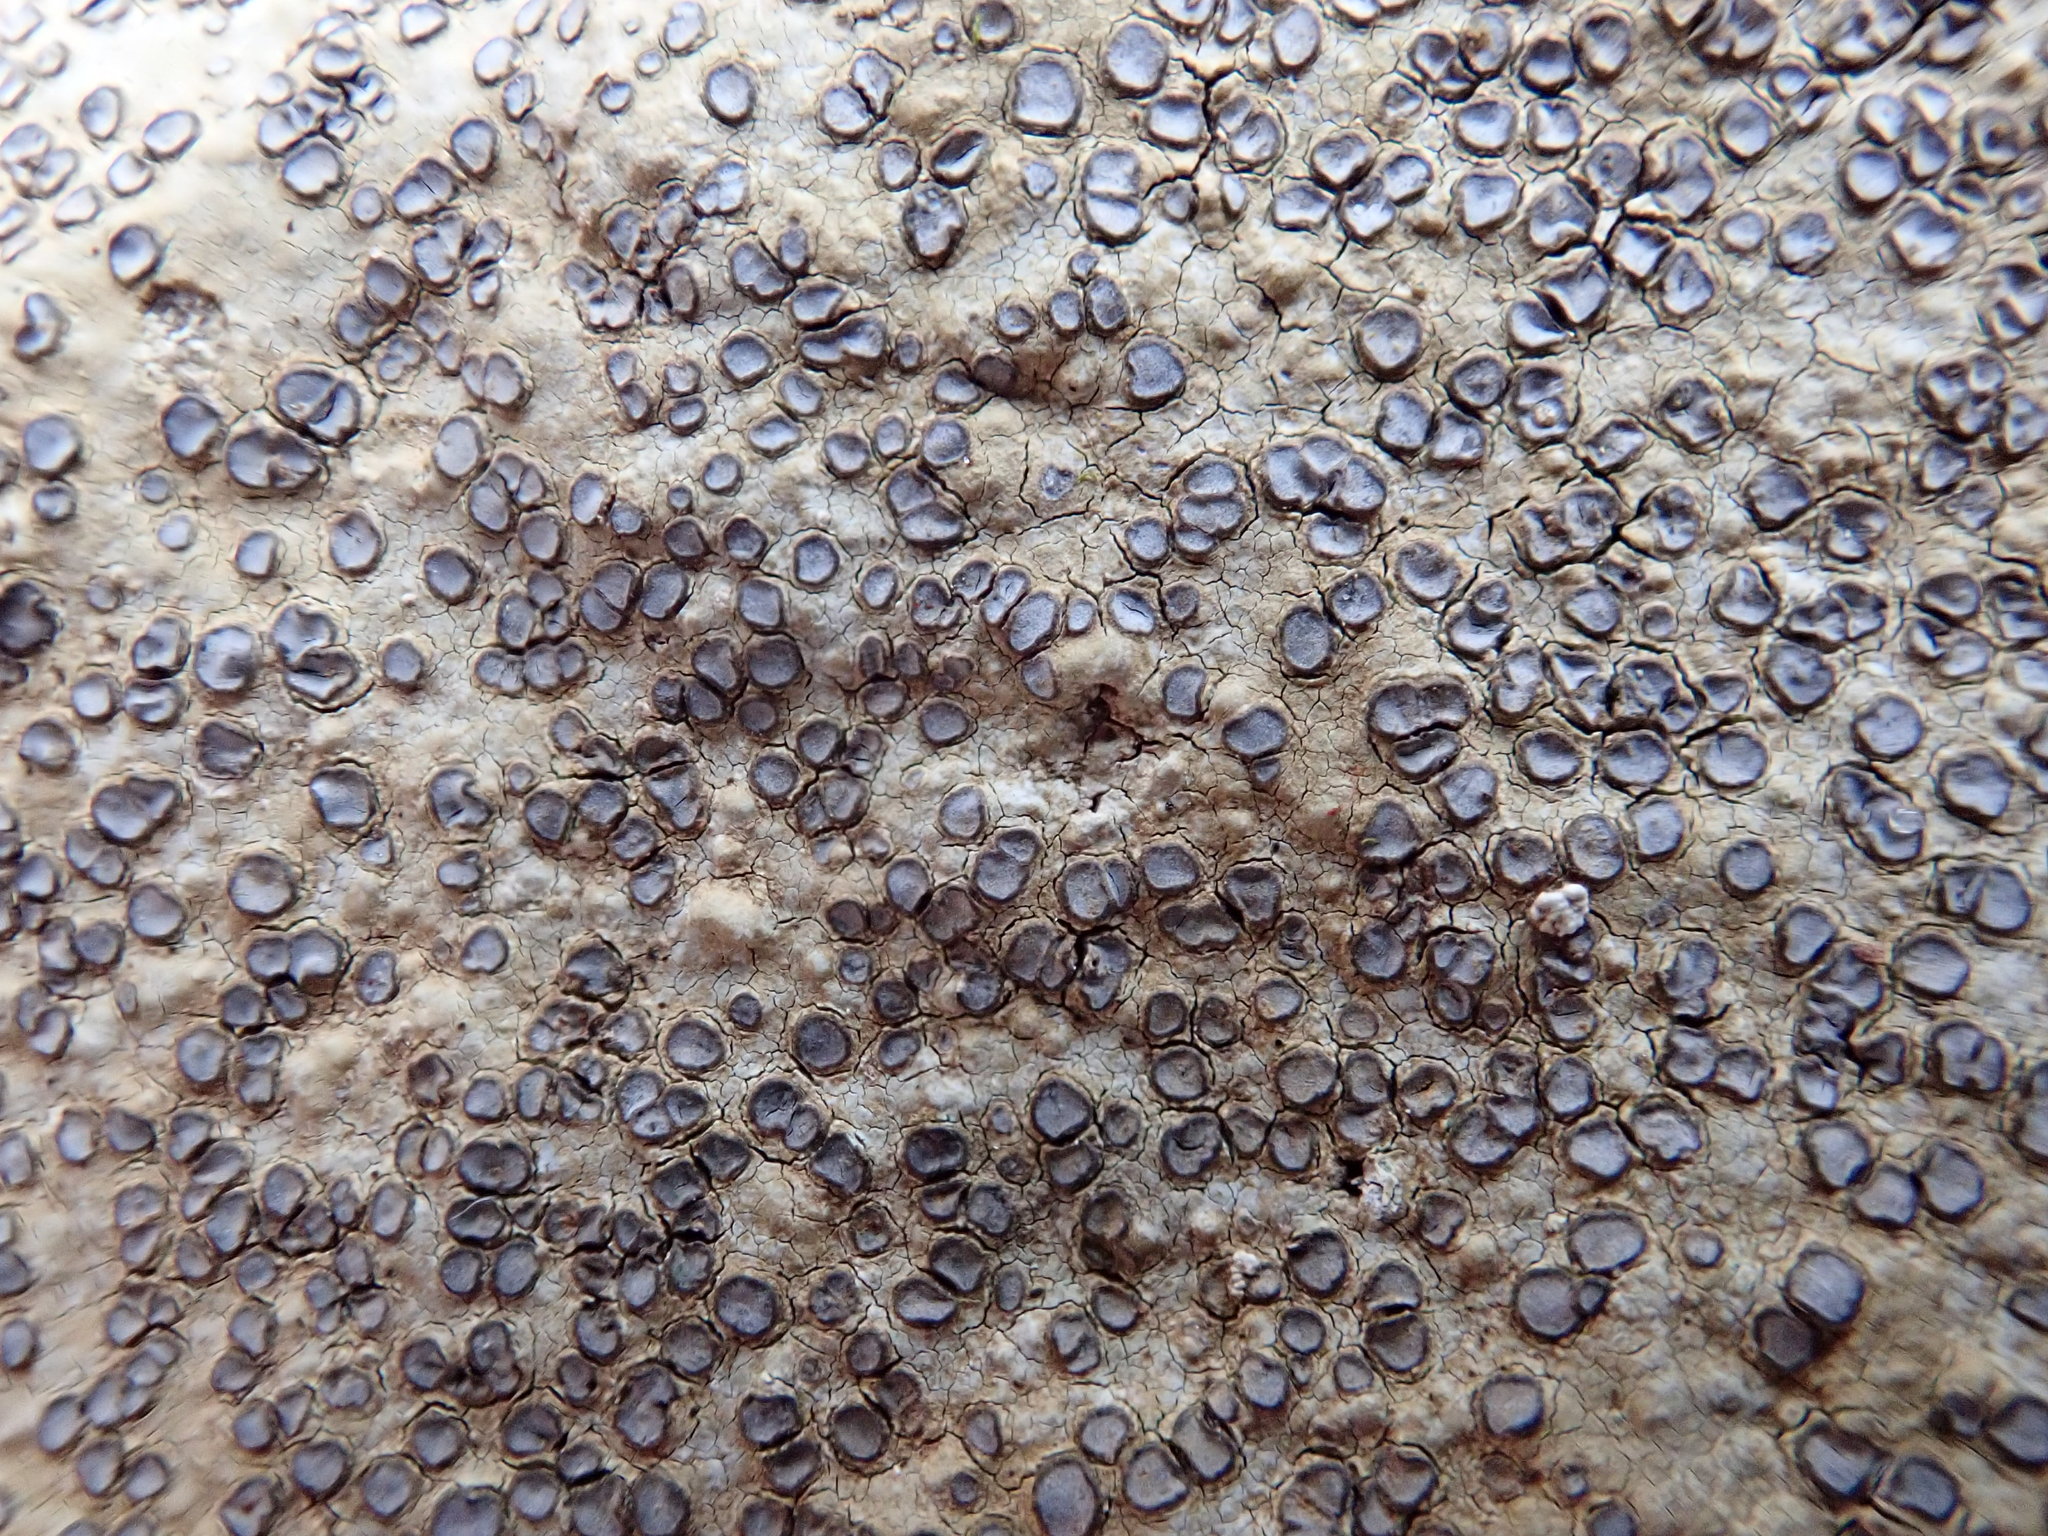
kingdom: Fungi
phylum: Ascomycota
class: Lecanoromycetes
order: Lecideales
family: Lecideaceae
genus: Porpidia
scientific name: Porpidia albocaerulescens
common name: Smokey-eyed boulder lichen
